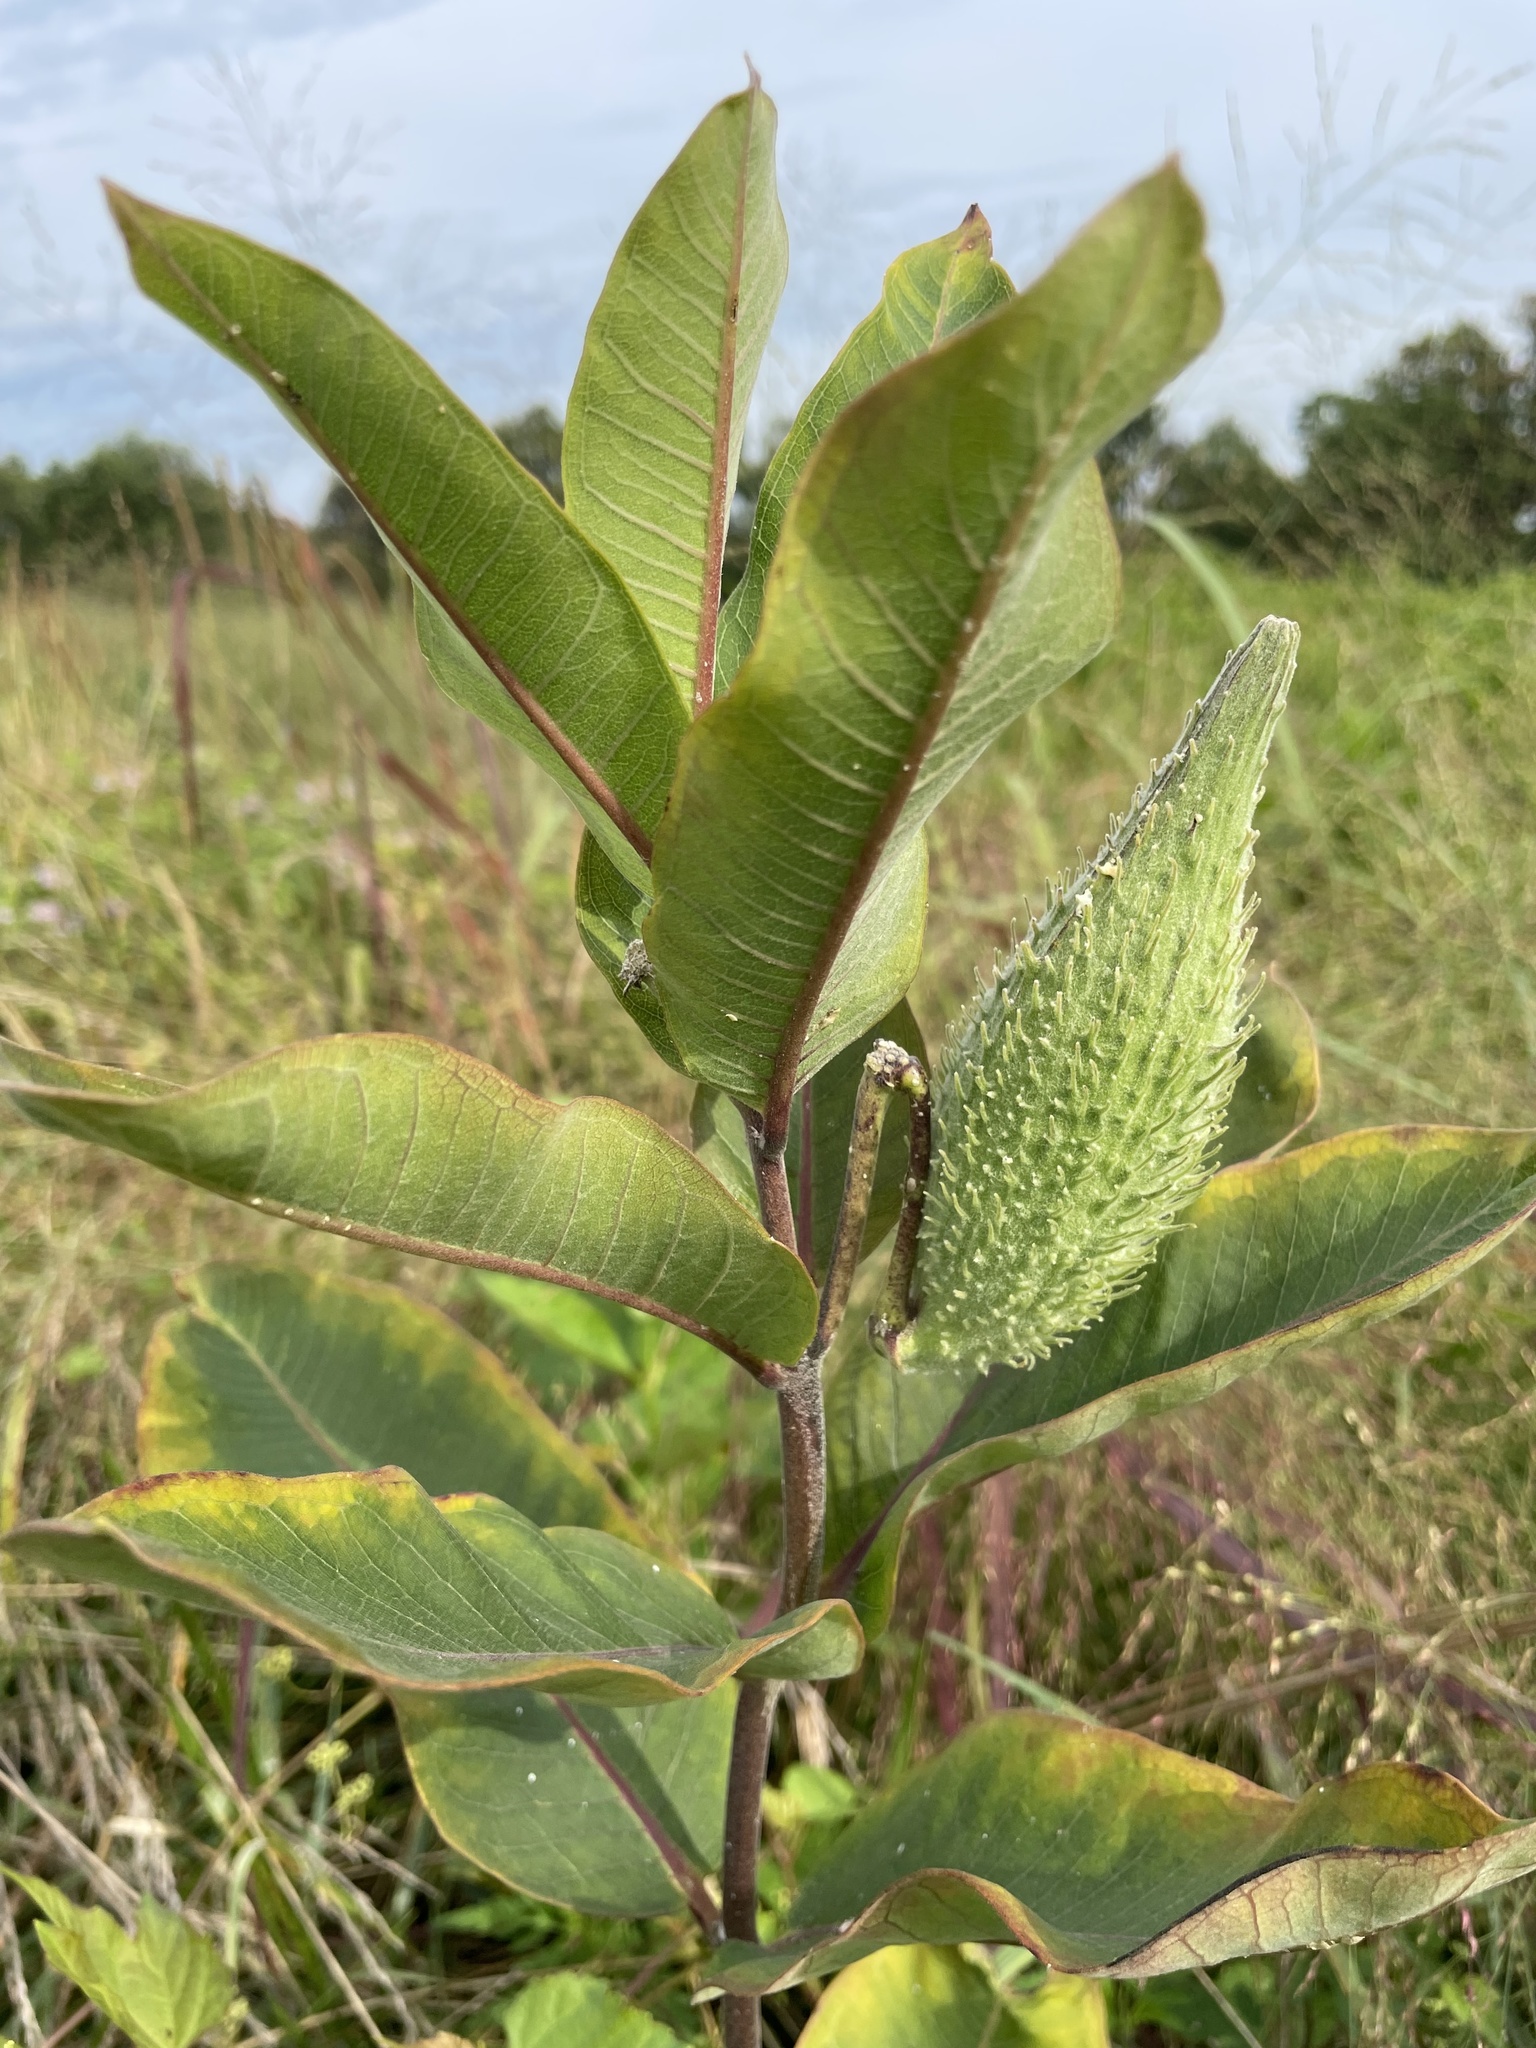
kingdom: Plantae
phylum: Tracheophyta
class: Magnoliopsida
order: Gentianales
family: Apocynaceae
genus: Asclepias
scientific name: Asclepias syriaca
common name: Common milkweed
